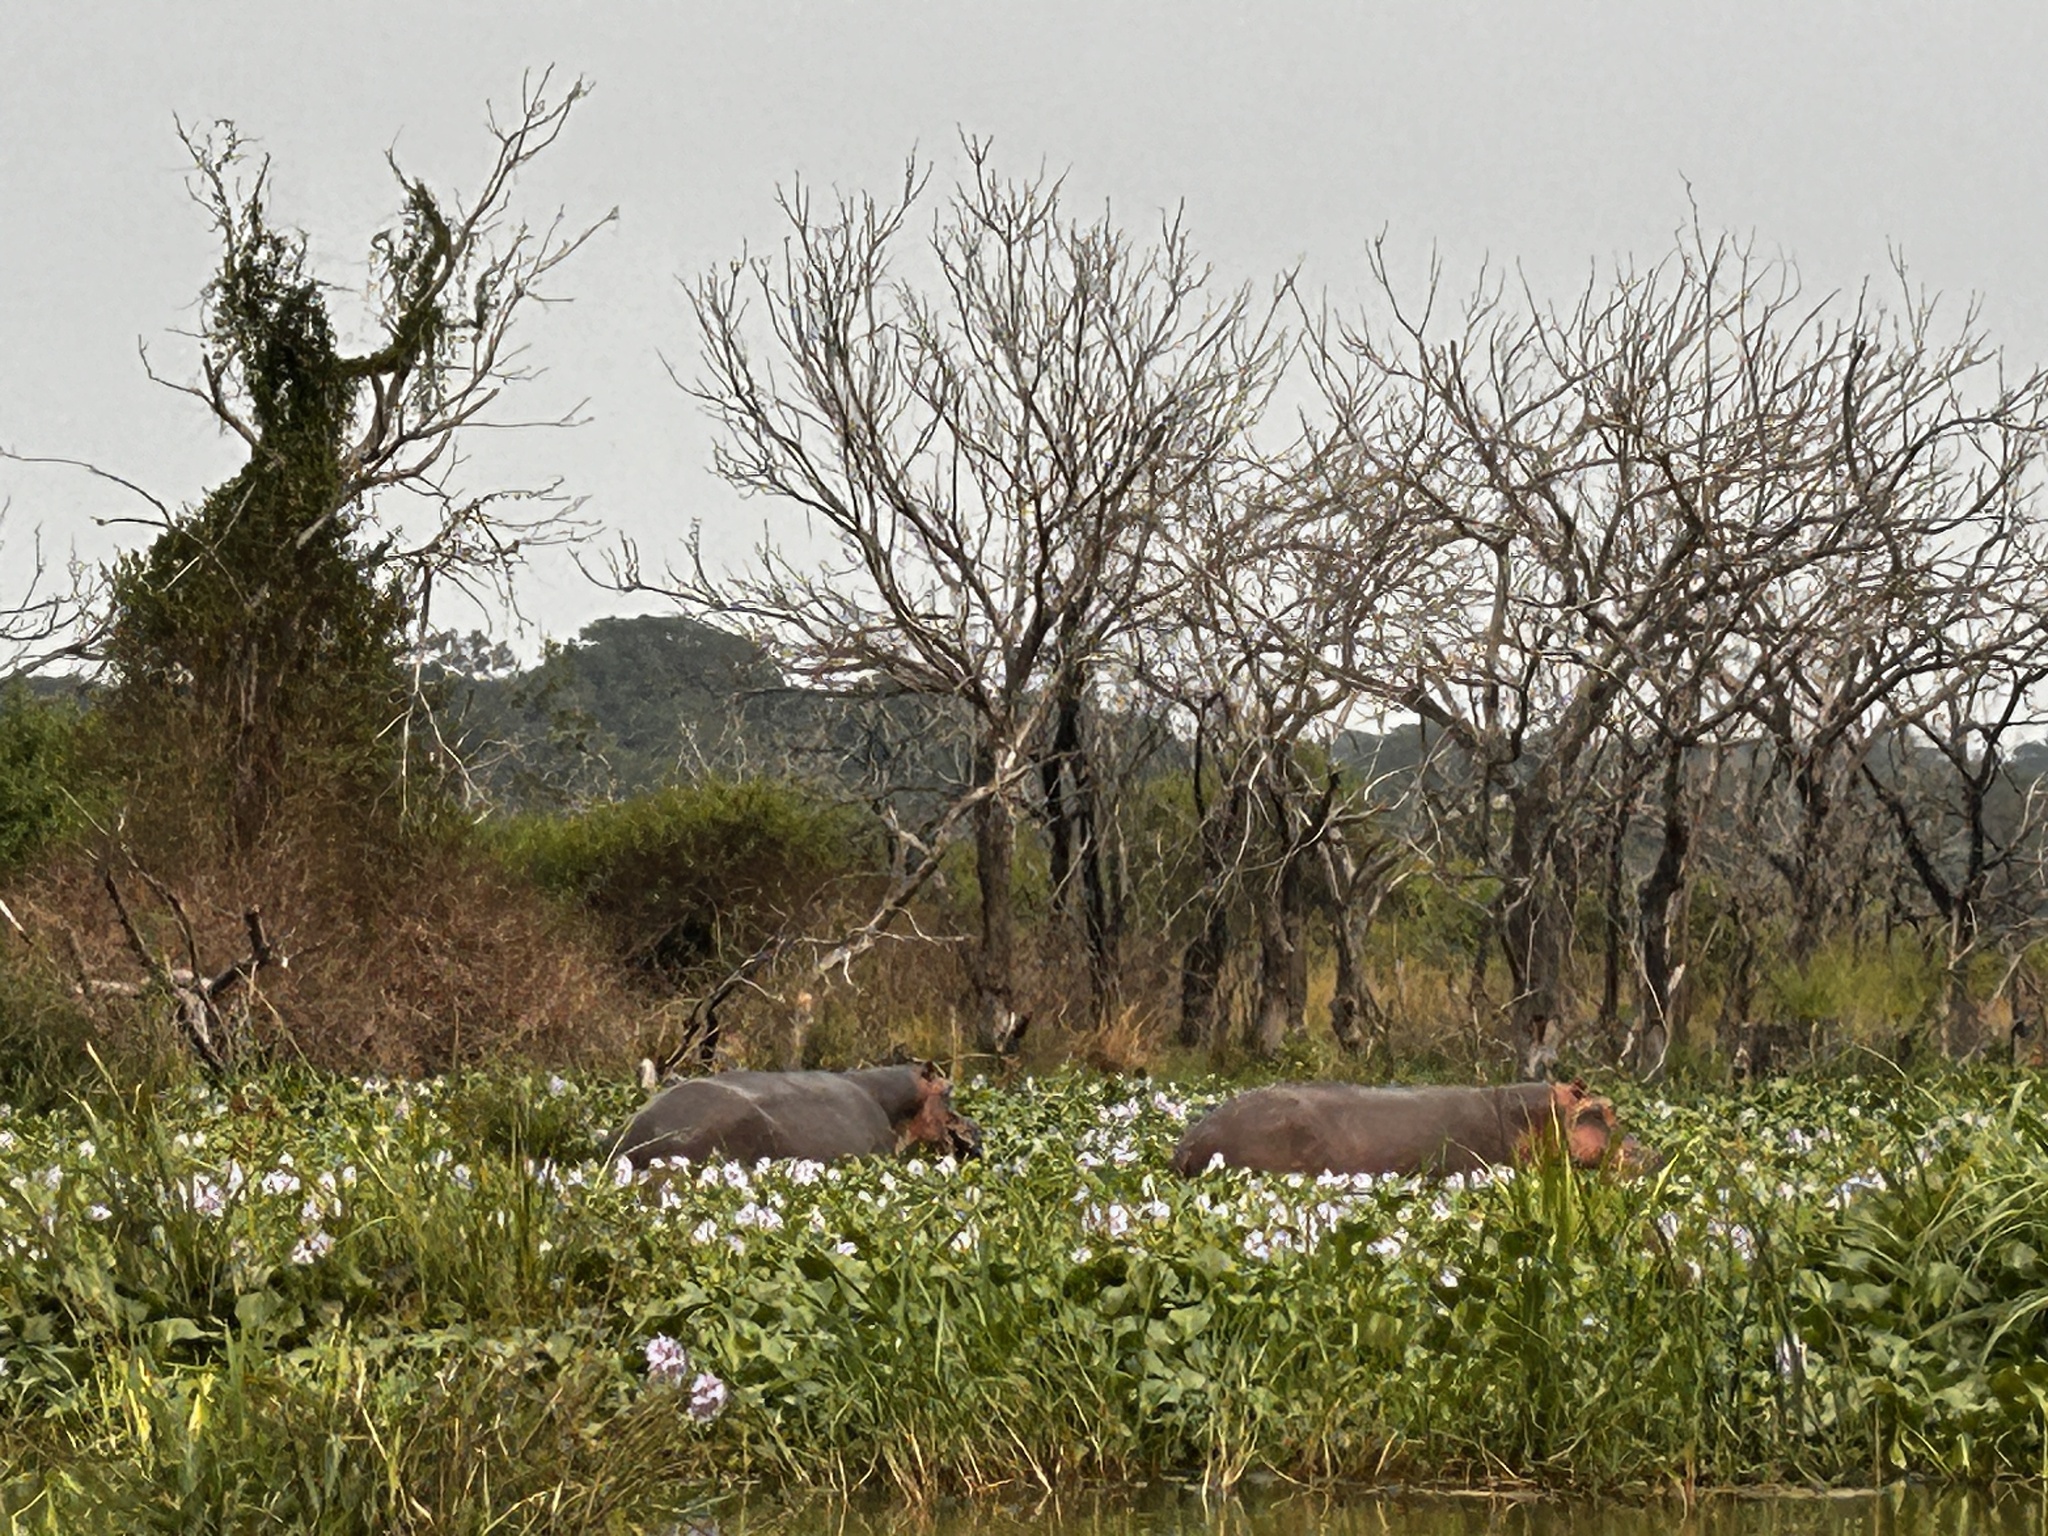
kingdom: Animalia
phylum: Chordata
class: Mammalia
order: Artiodactyla
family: Hippopotamidae
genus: Hippopotamus
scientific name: Hippopotamus amphibius
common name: Common hippopotamus
